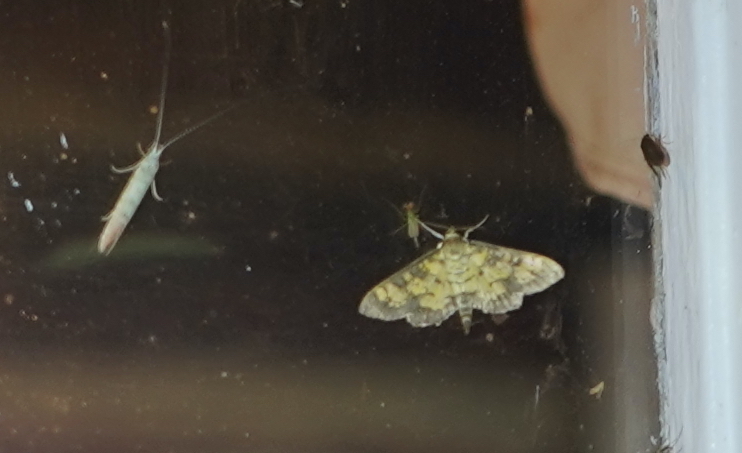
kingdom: Animalia
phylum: Arthropoda
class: Insecta
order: Lepidoptera
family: Crambidae
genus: Epipagis
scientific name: Epipagis adipaloides
